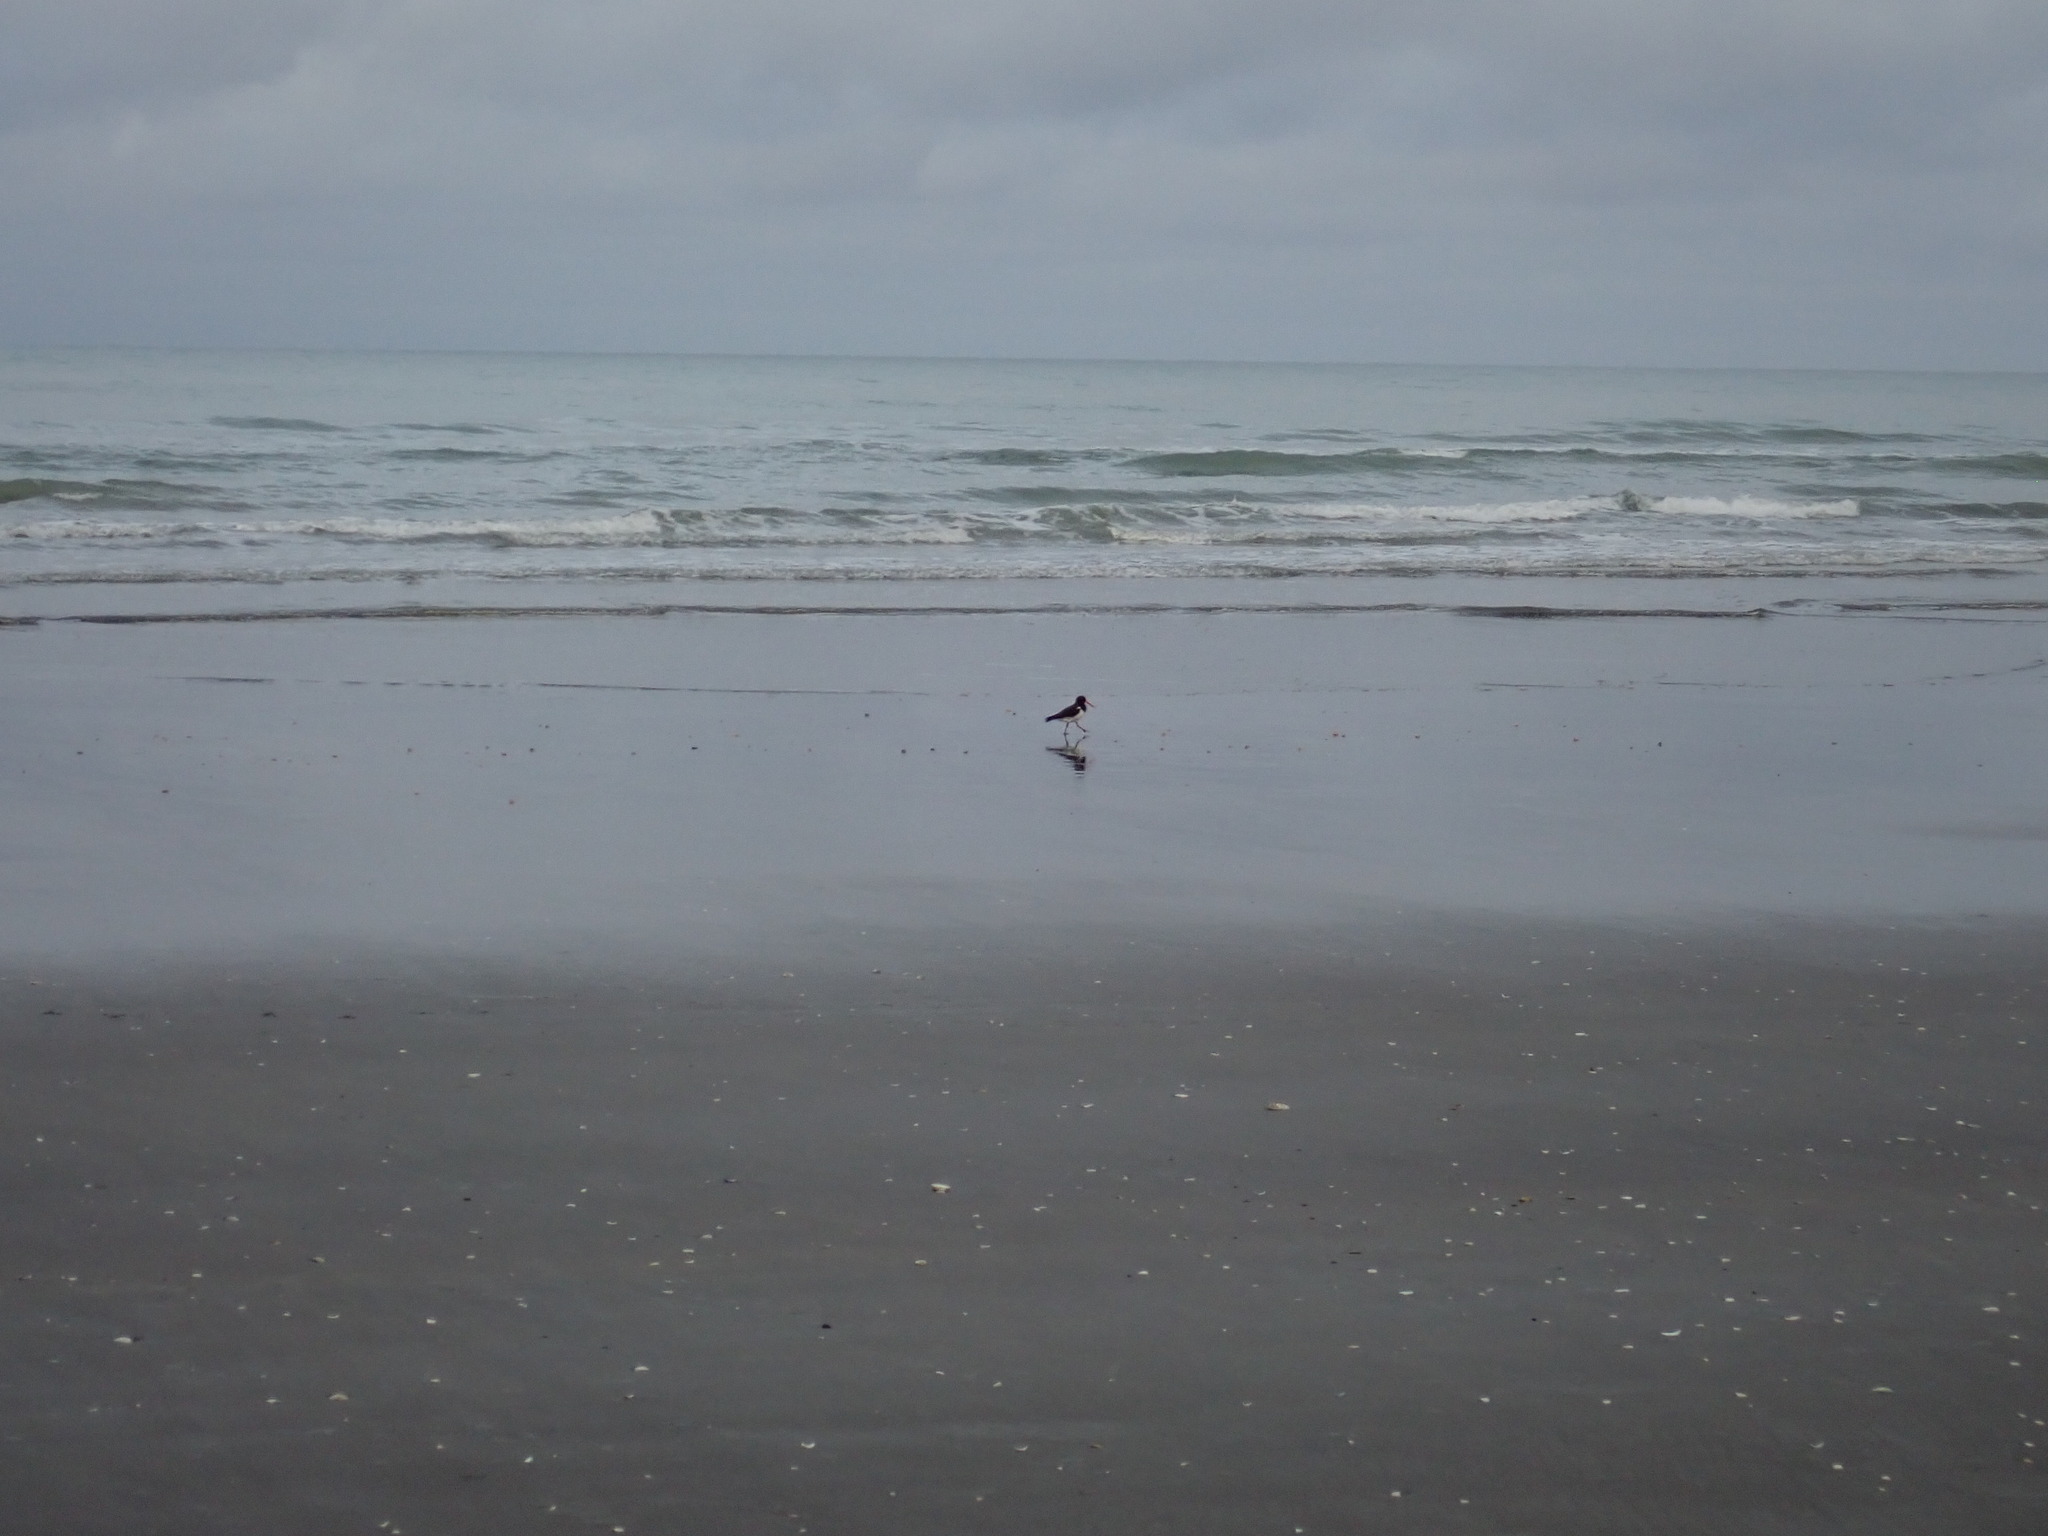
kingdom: Animalia
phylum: Chordata
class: Aves
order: Charadriiformes
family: Haematopodidae
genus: Haematopus
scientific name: Haematopus finschi
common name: South island oystercatcher
